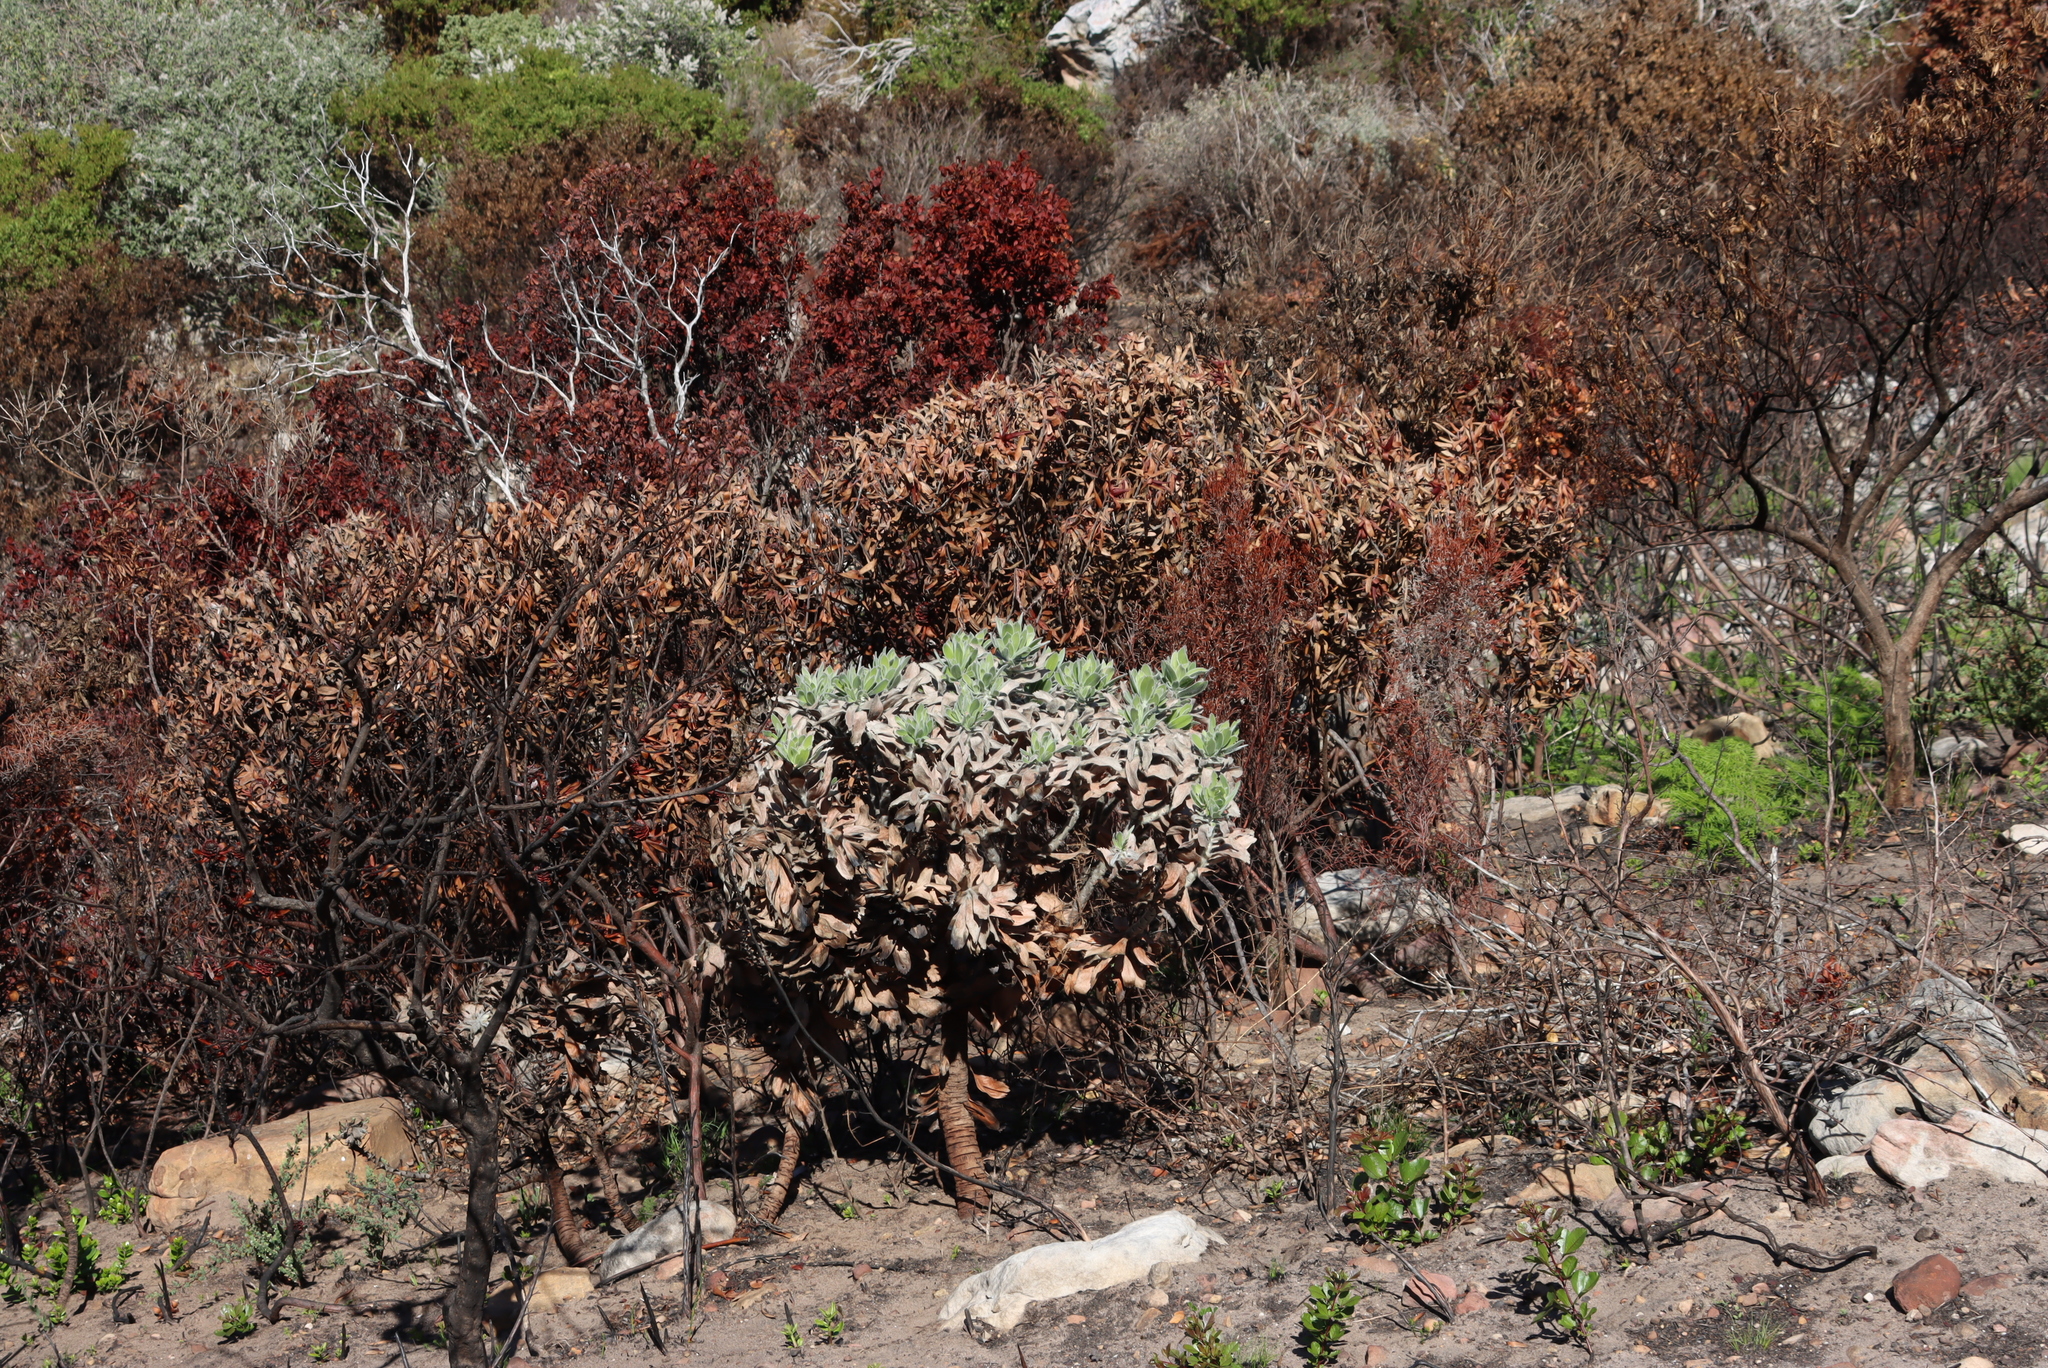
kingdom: Plantae
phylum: Tracheophyta
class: Magnoliopsida
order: Proteales
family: Proteaceae
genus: Leucospermum
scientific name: Leucospermum conocarpodendron
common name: Tree pincushion
